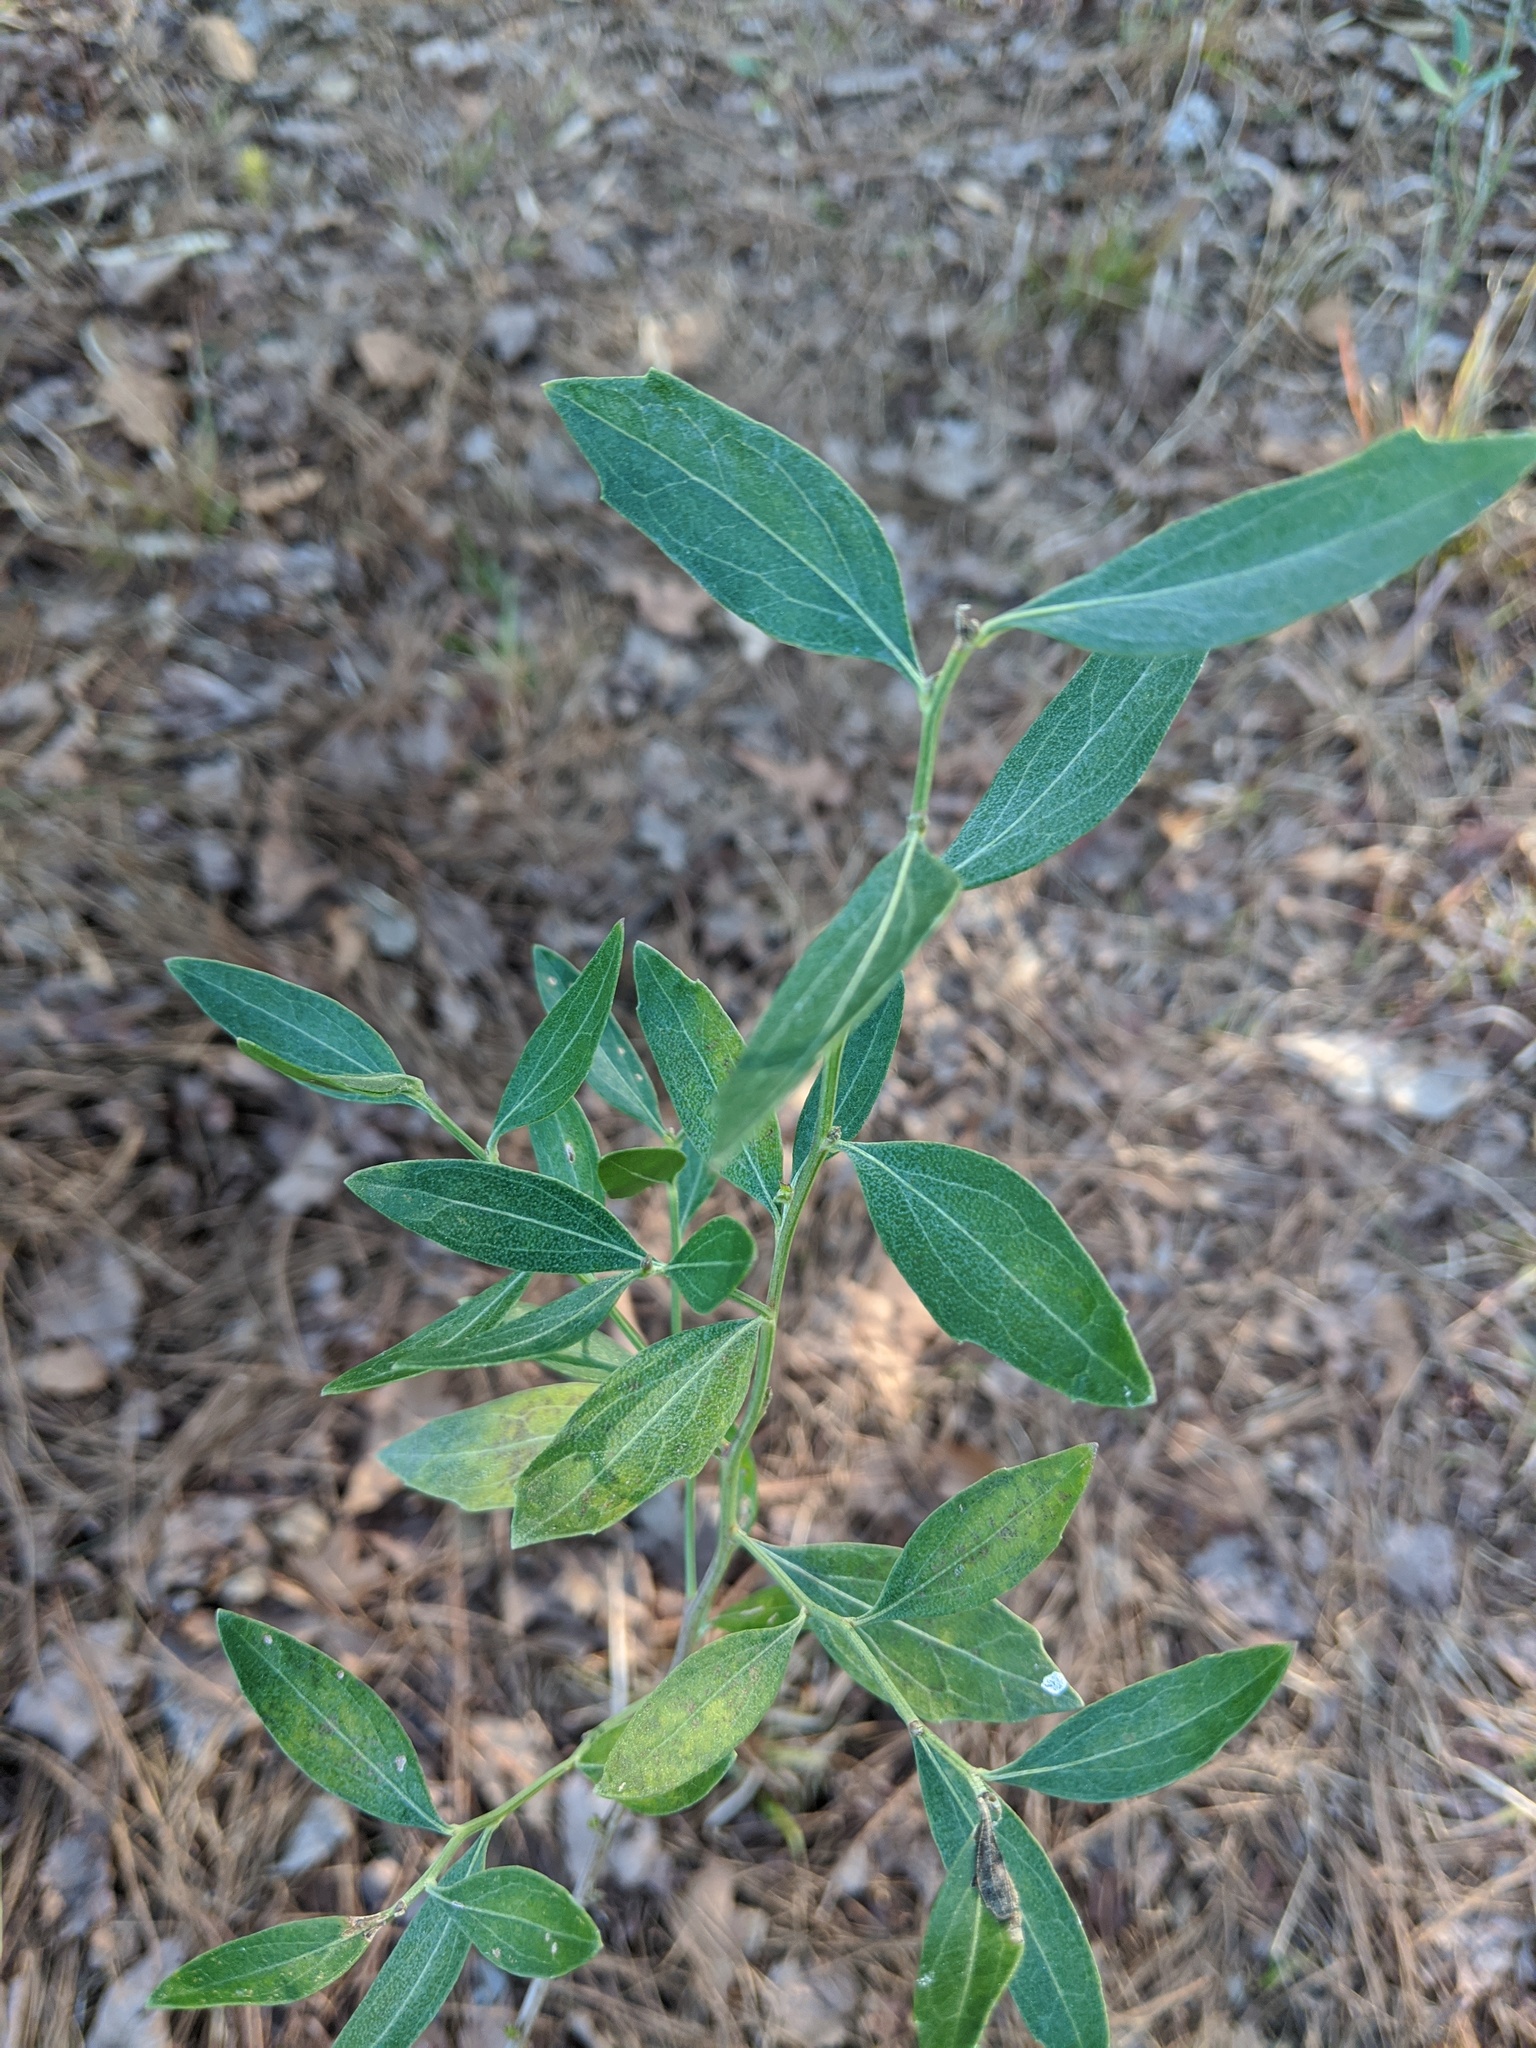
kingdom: Plantae
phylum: Tracheophyta
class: Magnoliopsida
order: Asterales
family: Asteraceae
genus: Baccharis
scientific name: Baccharis halimifolia
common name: Eastern baccharis
